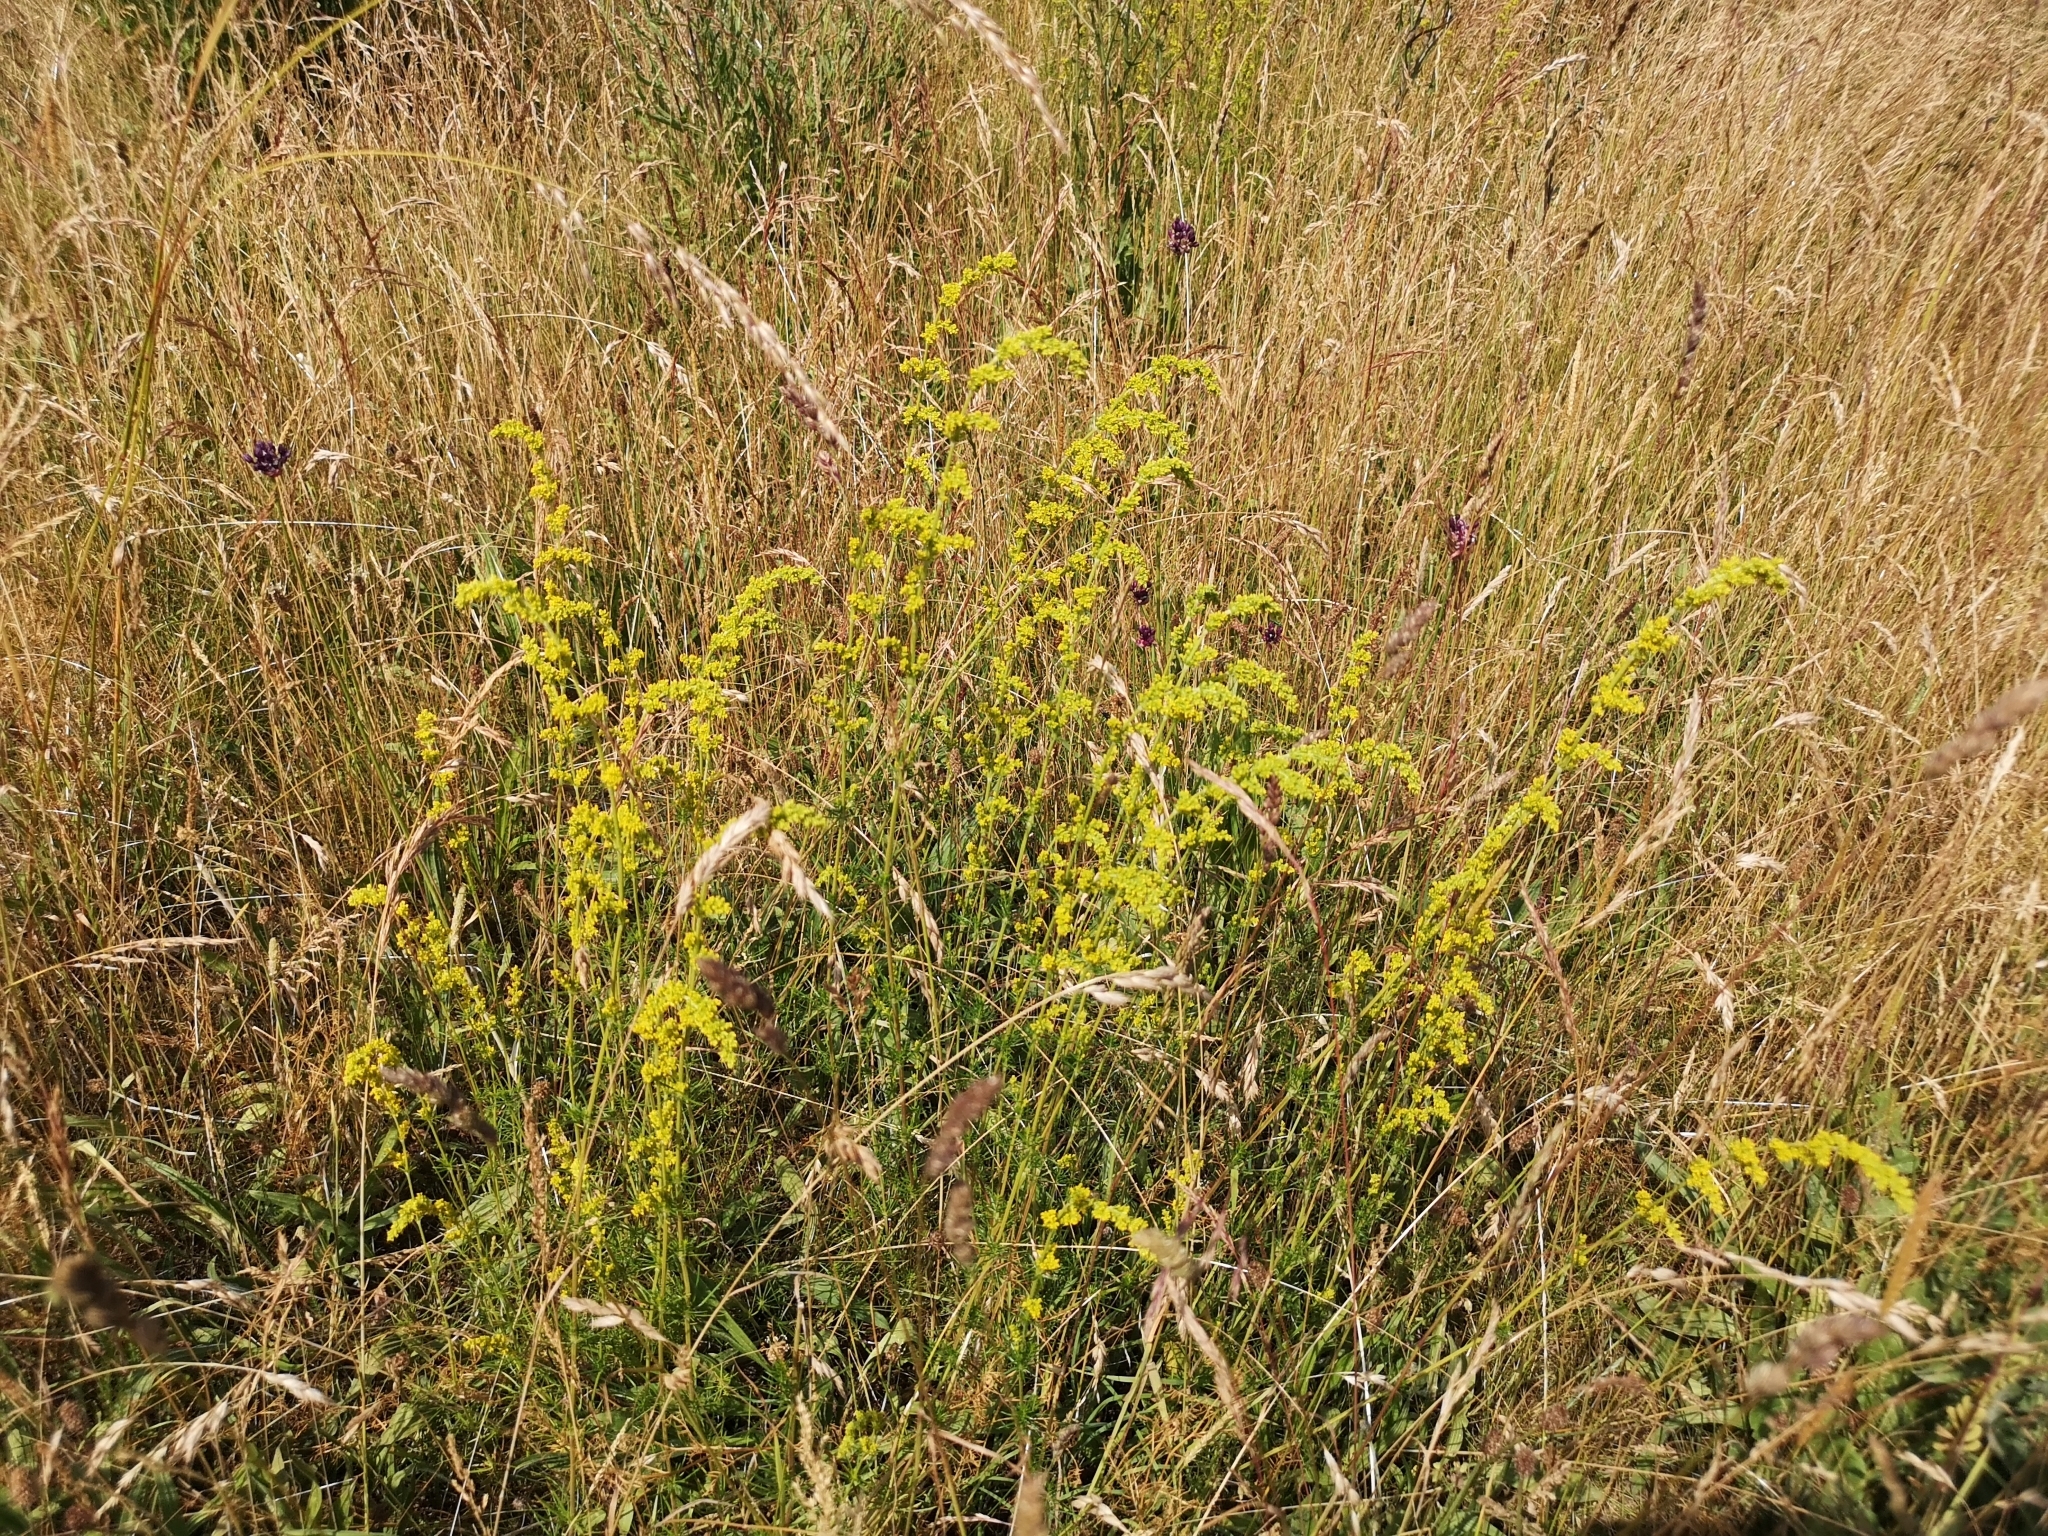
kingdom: Plantae
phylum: Tracheophyta
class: Magnoliopsida
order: Gentianales
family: Rubiaceae
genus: Galium
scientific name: Galium verum
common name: Lady's bedstraw
